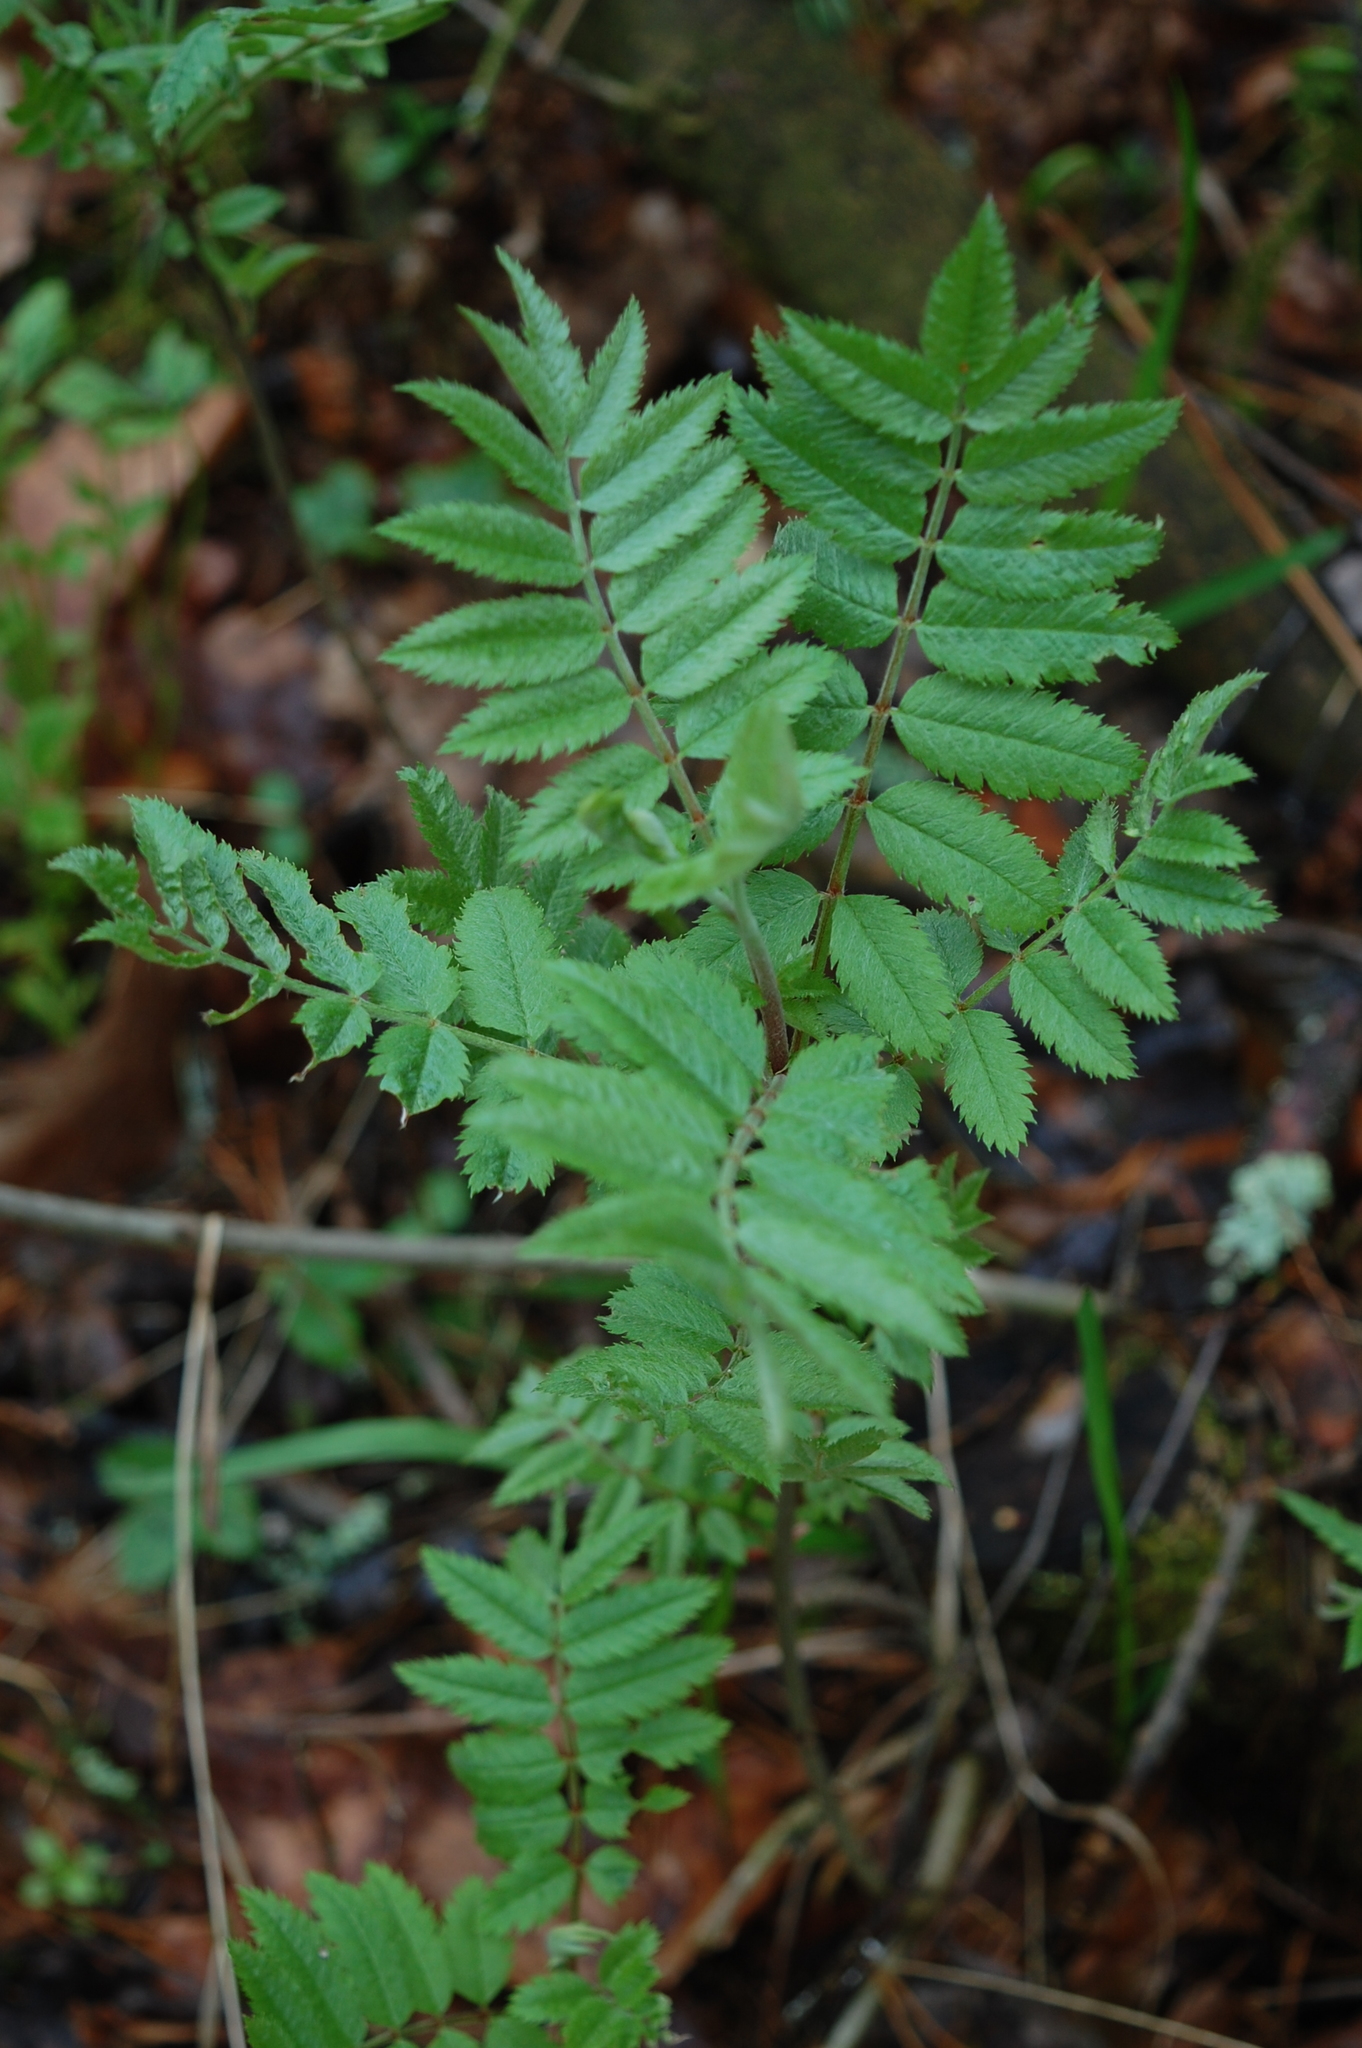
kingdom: Plantae
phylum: Tracheophyta
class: Magnoliopsida
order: Rosales
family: Rosaceae
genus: Sorbus
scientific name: Sorbus aucuparia
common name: Rowan
